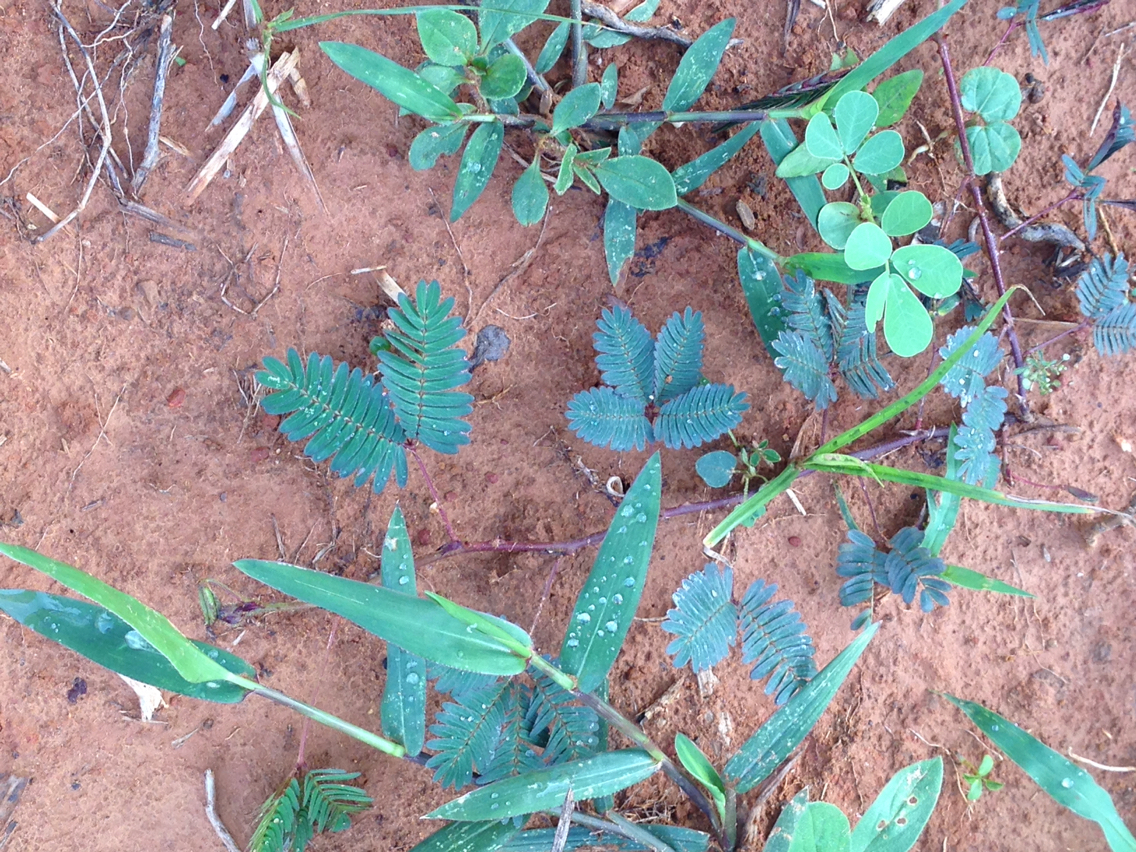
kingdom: Plantae
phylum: Tracheophyta
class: Magnoliopsida
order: Fabales
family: Fabaceae
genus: Mimosa
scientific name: Mimosa pudica
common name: Sensitive plant
